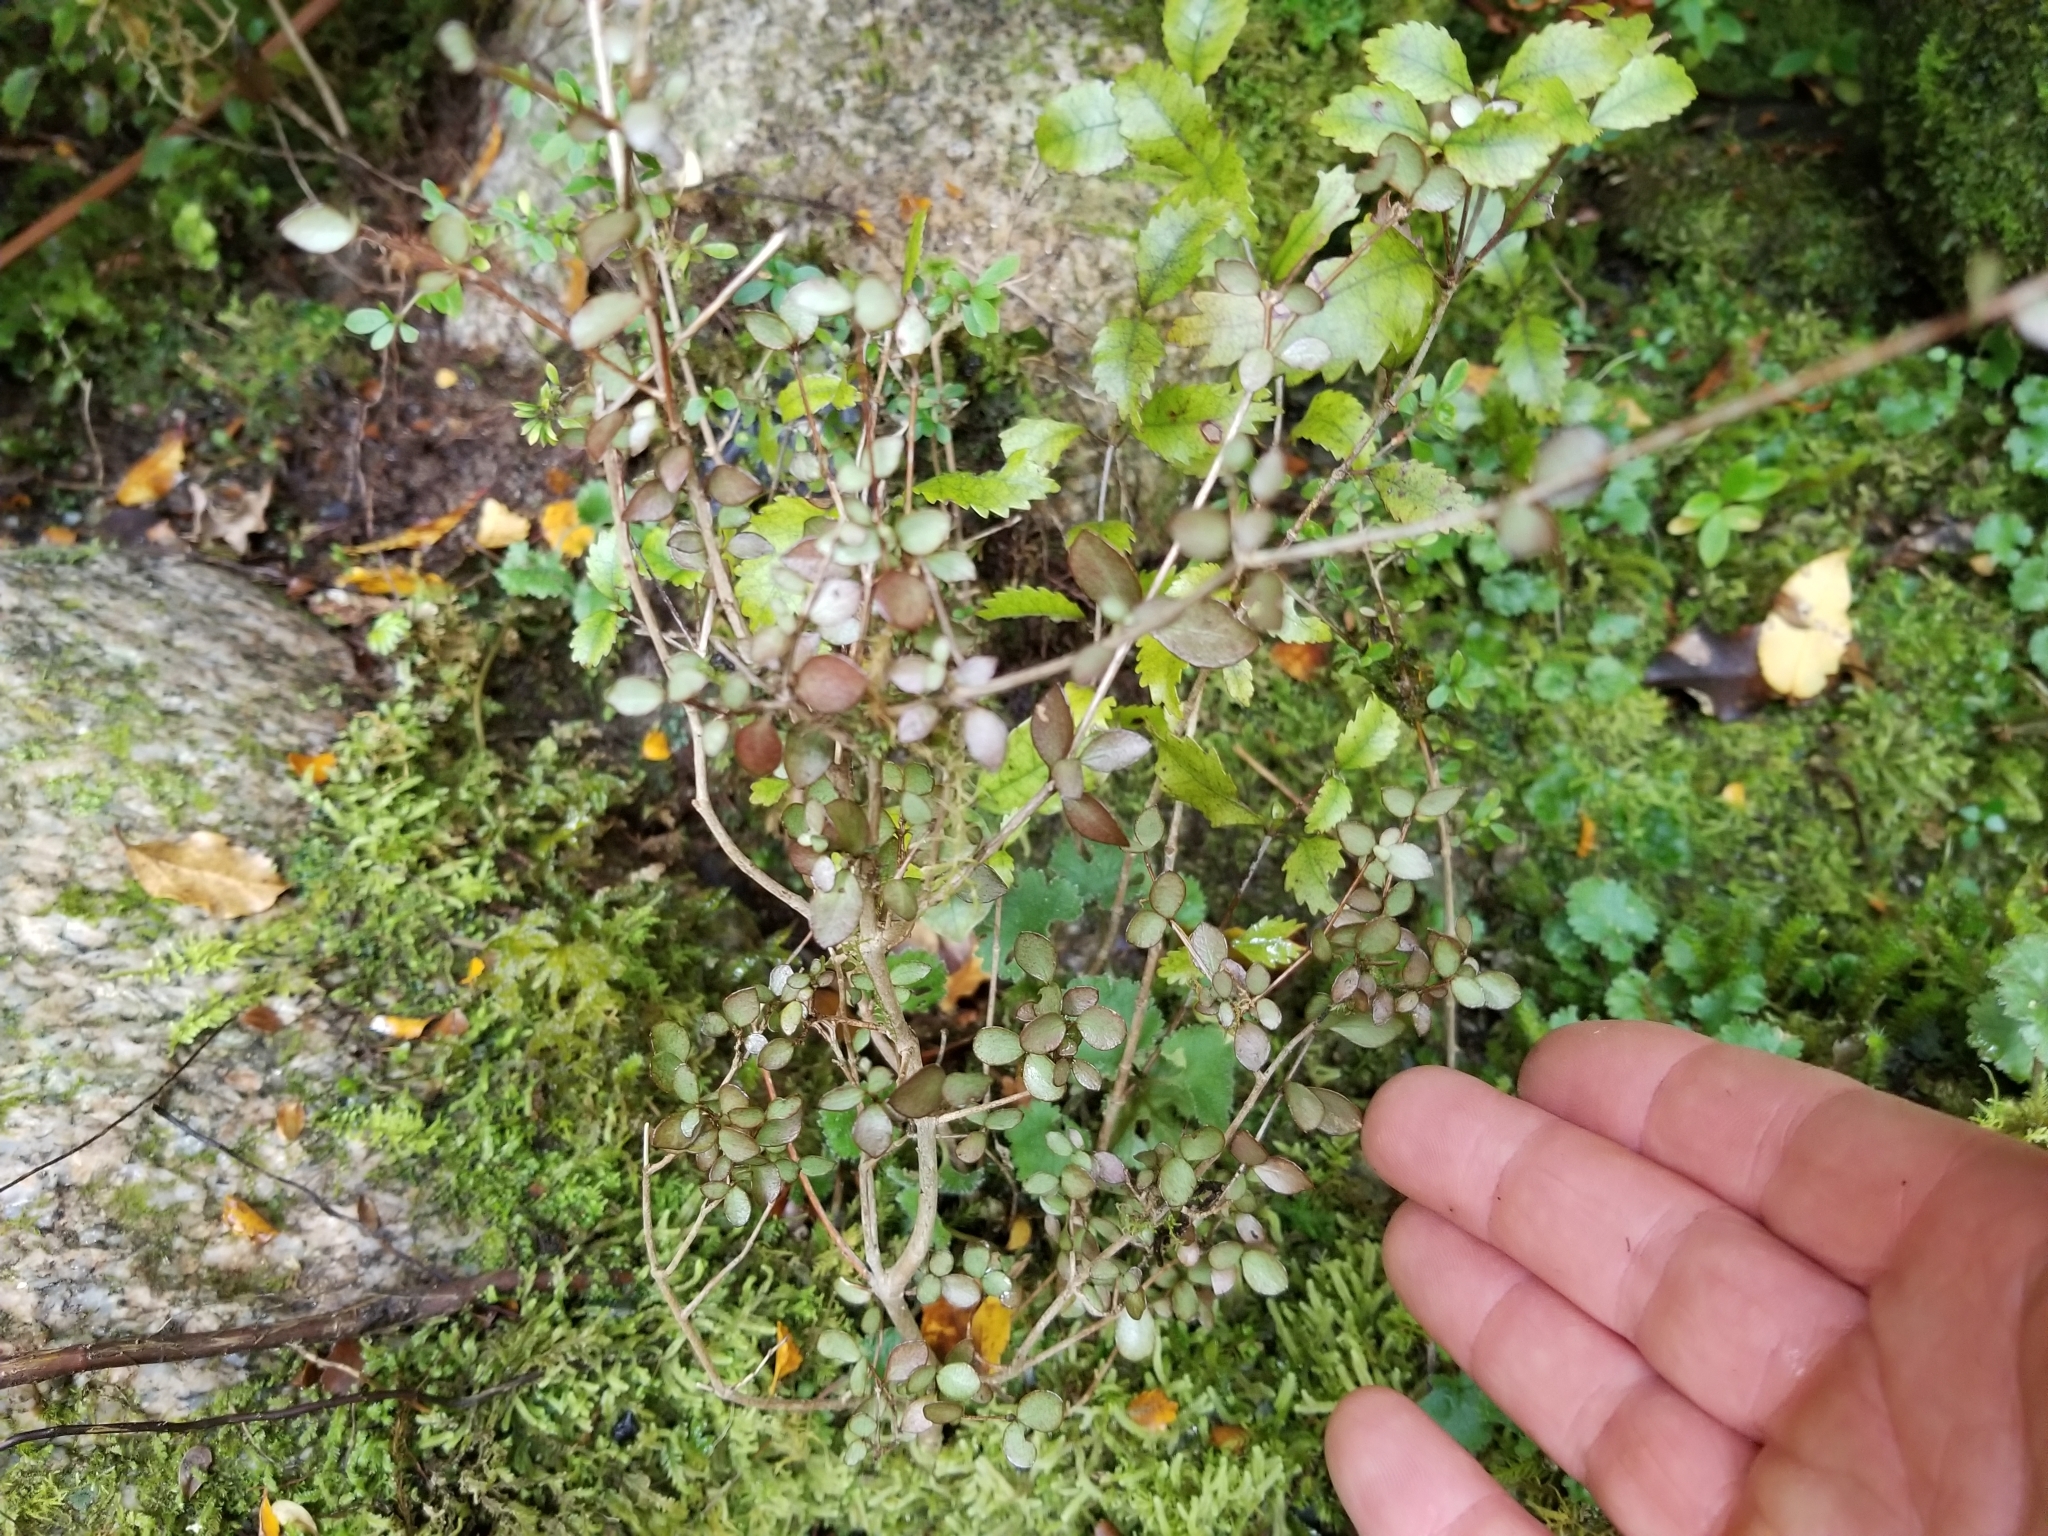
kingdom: Plantae
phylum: Tracheophyta
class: Magnoliopsida
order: Myrtales
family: Myrtaceae
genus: Neomyrtus
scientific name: Neomyrtus pedunculata
